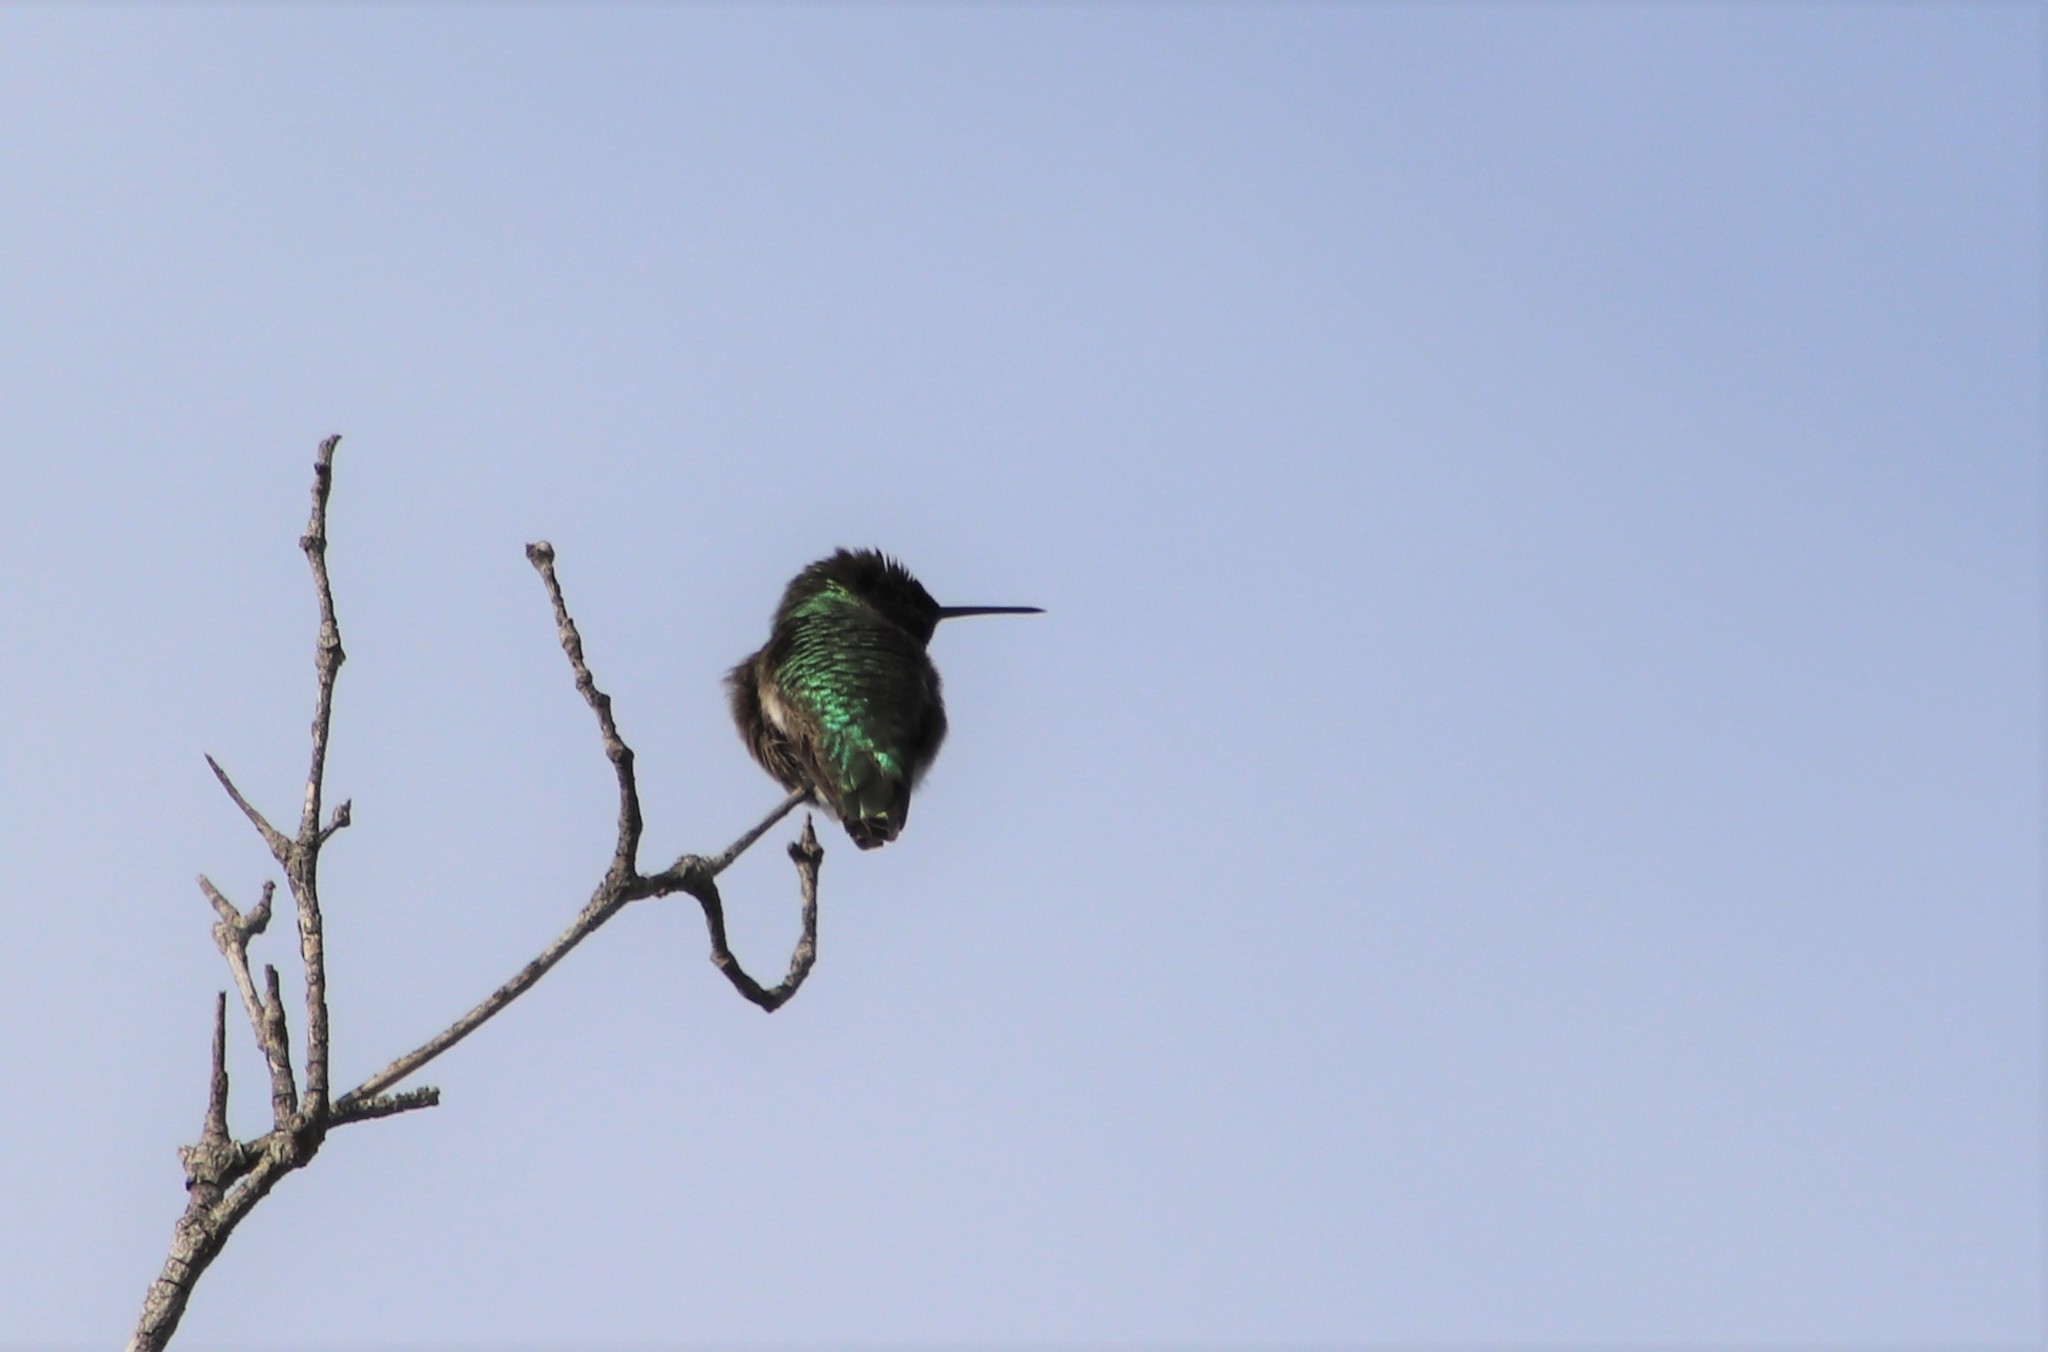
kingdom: Animalia
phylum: Chordata
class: Aves
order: Apodiformes
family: Trochilidae
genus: Calypte
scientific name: Calypte anna
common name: Anna's hummingbird
